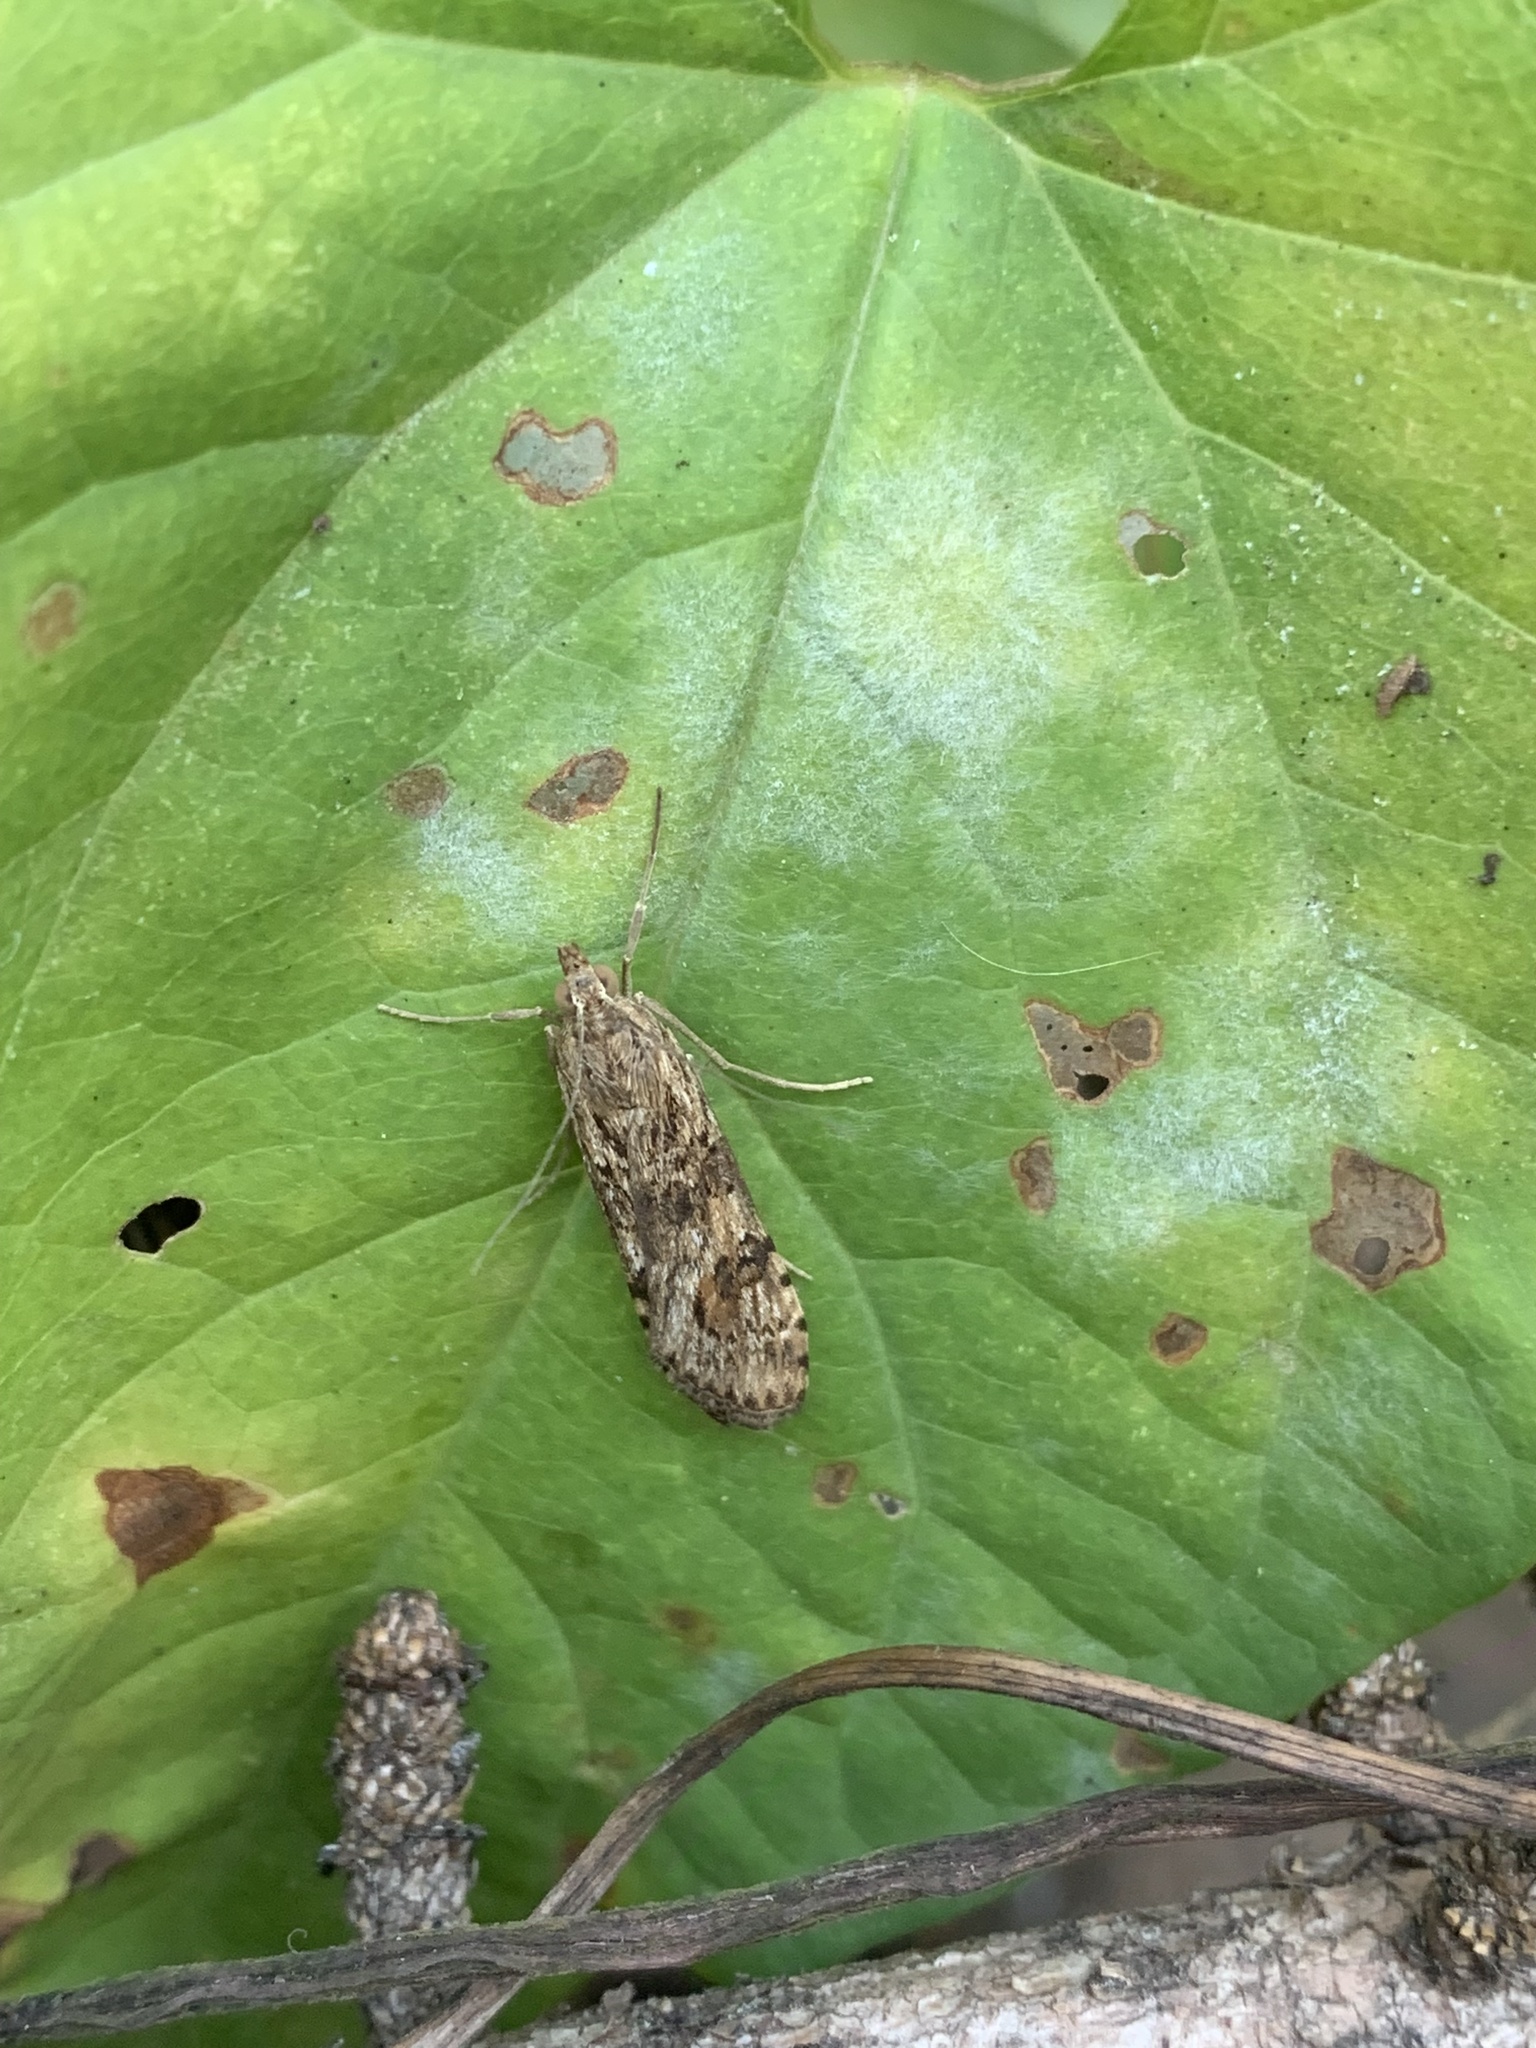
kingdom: Animalia
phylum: Arthropoda
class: Insecta
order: Lepidoptera
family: Crambidae
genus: Nomophila
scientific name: Nomophila noctuella
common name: Rush veneer
